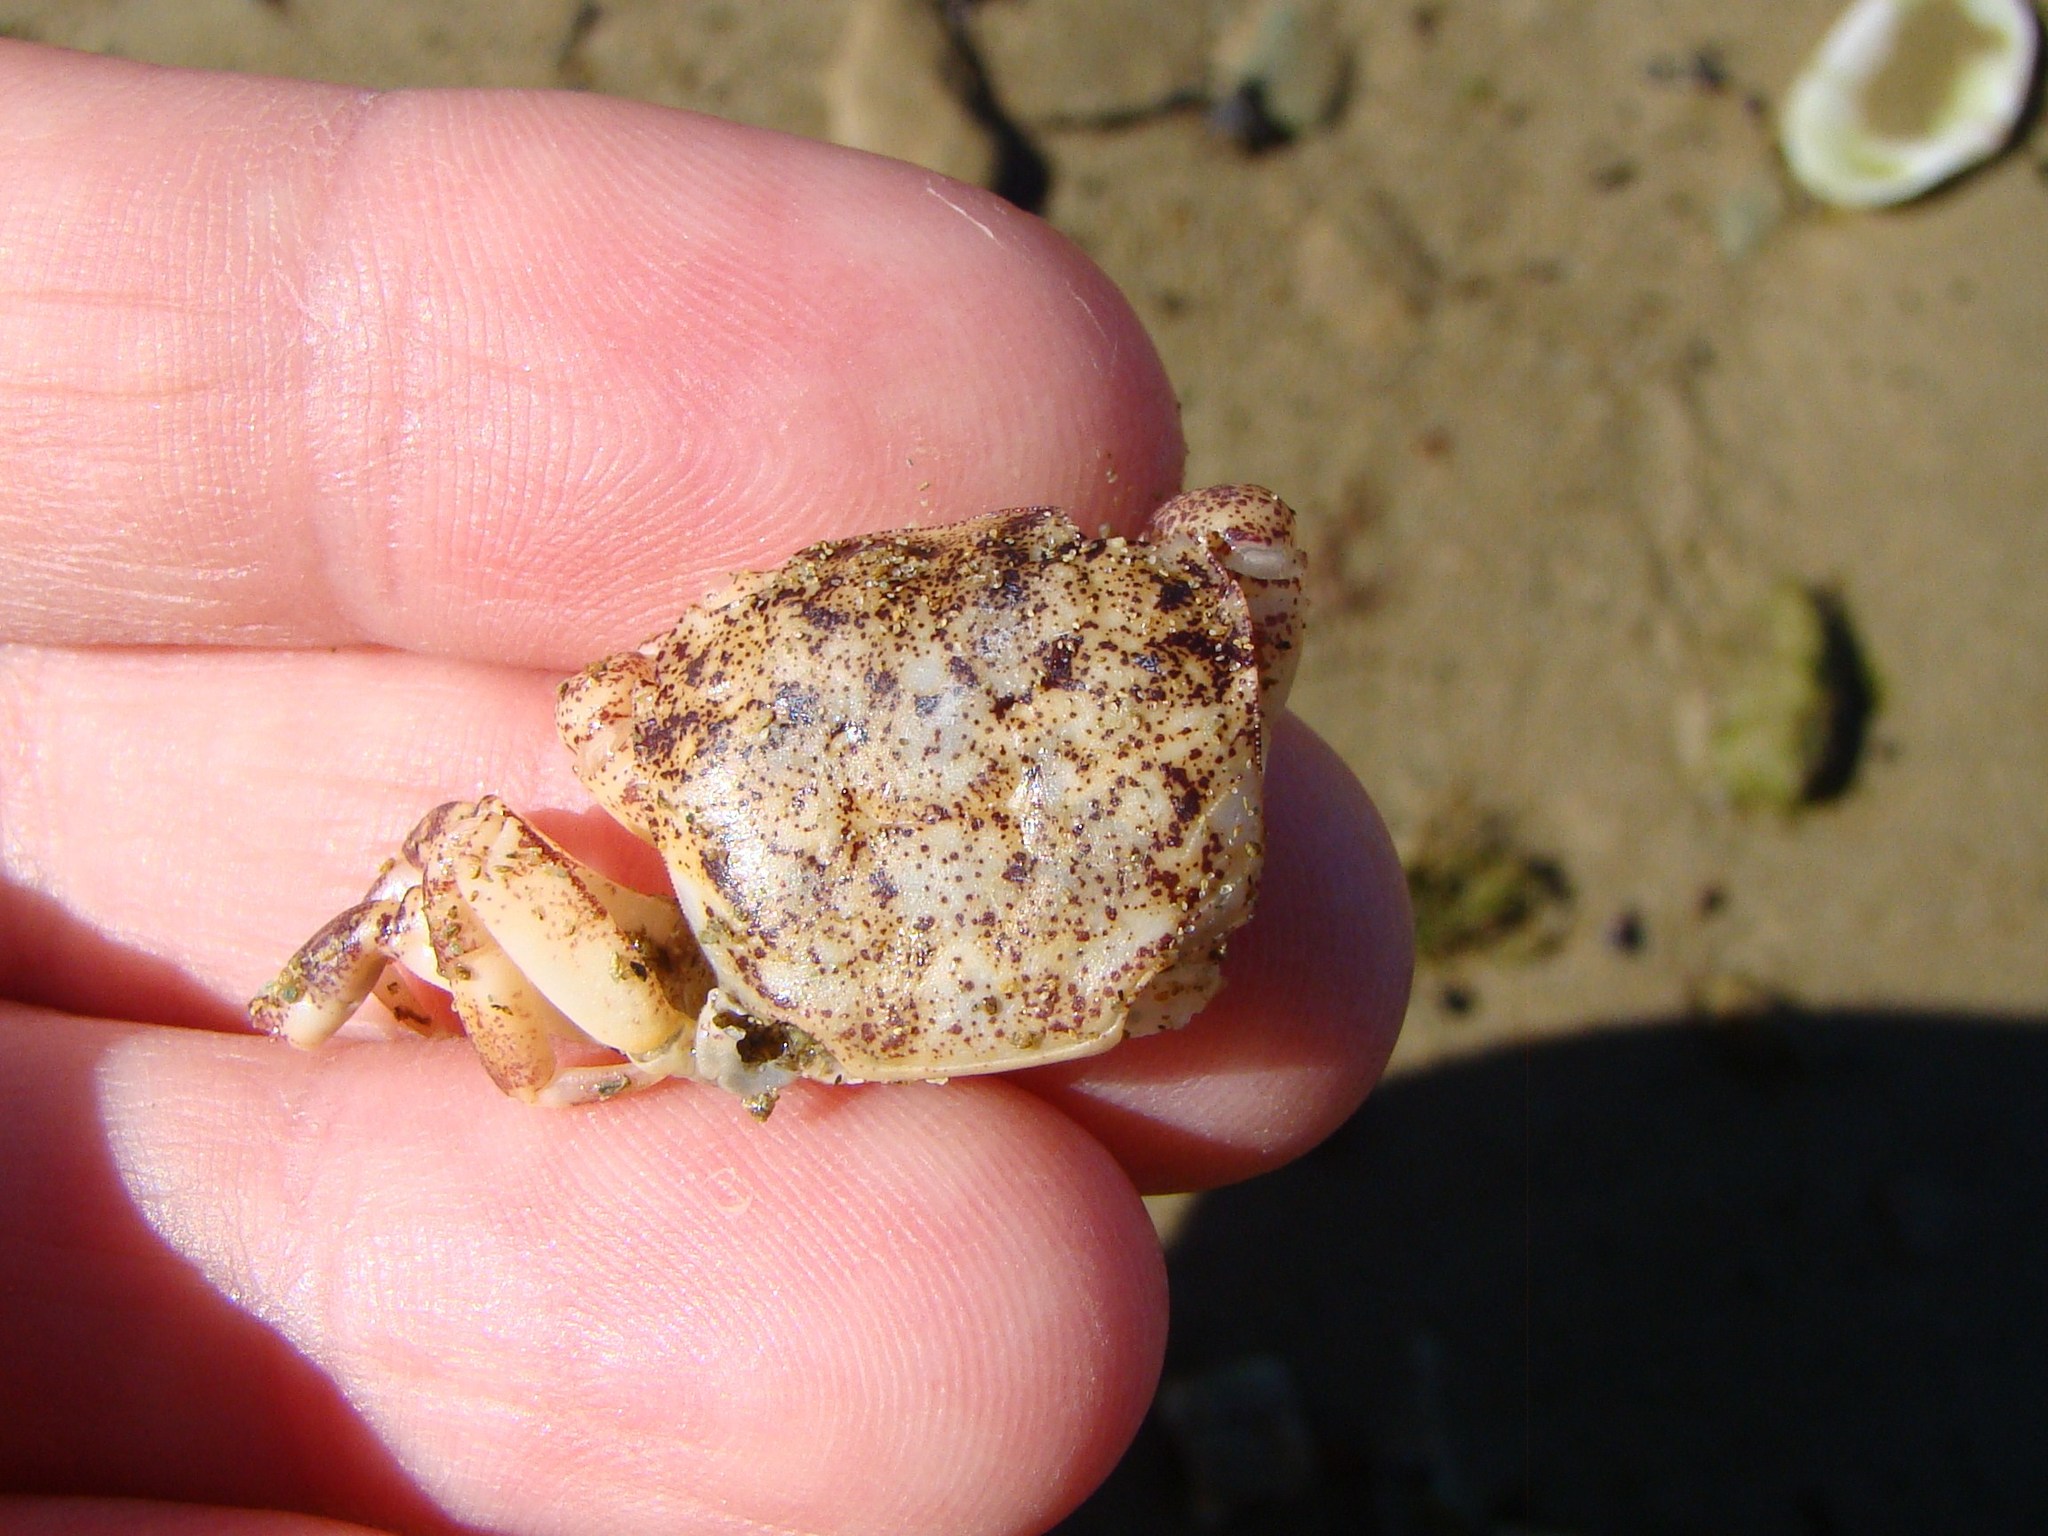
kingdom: Animalia
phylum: Arthropoda
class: Malacostraca
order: Decapoda
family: Varunidae
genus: Hemigrapsus
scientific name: Hemigrapsus sexdentatus
